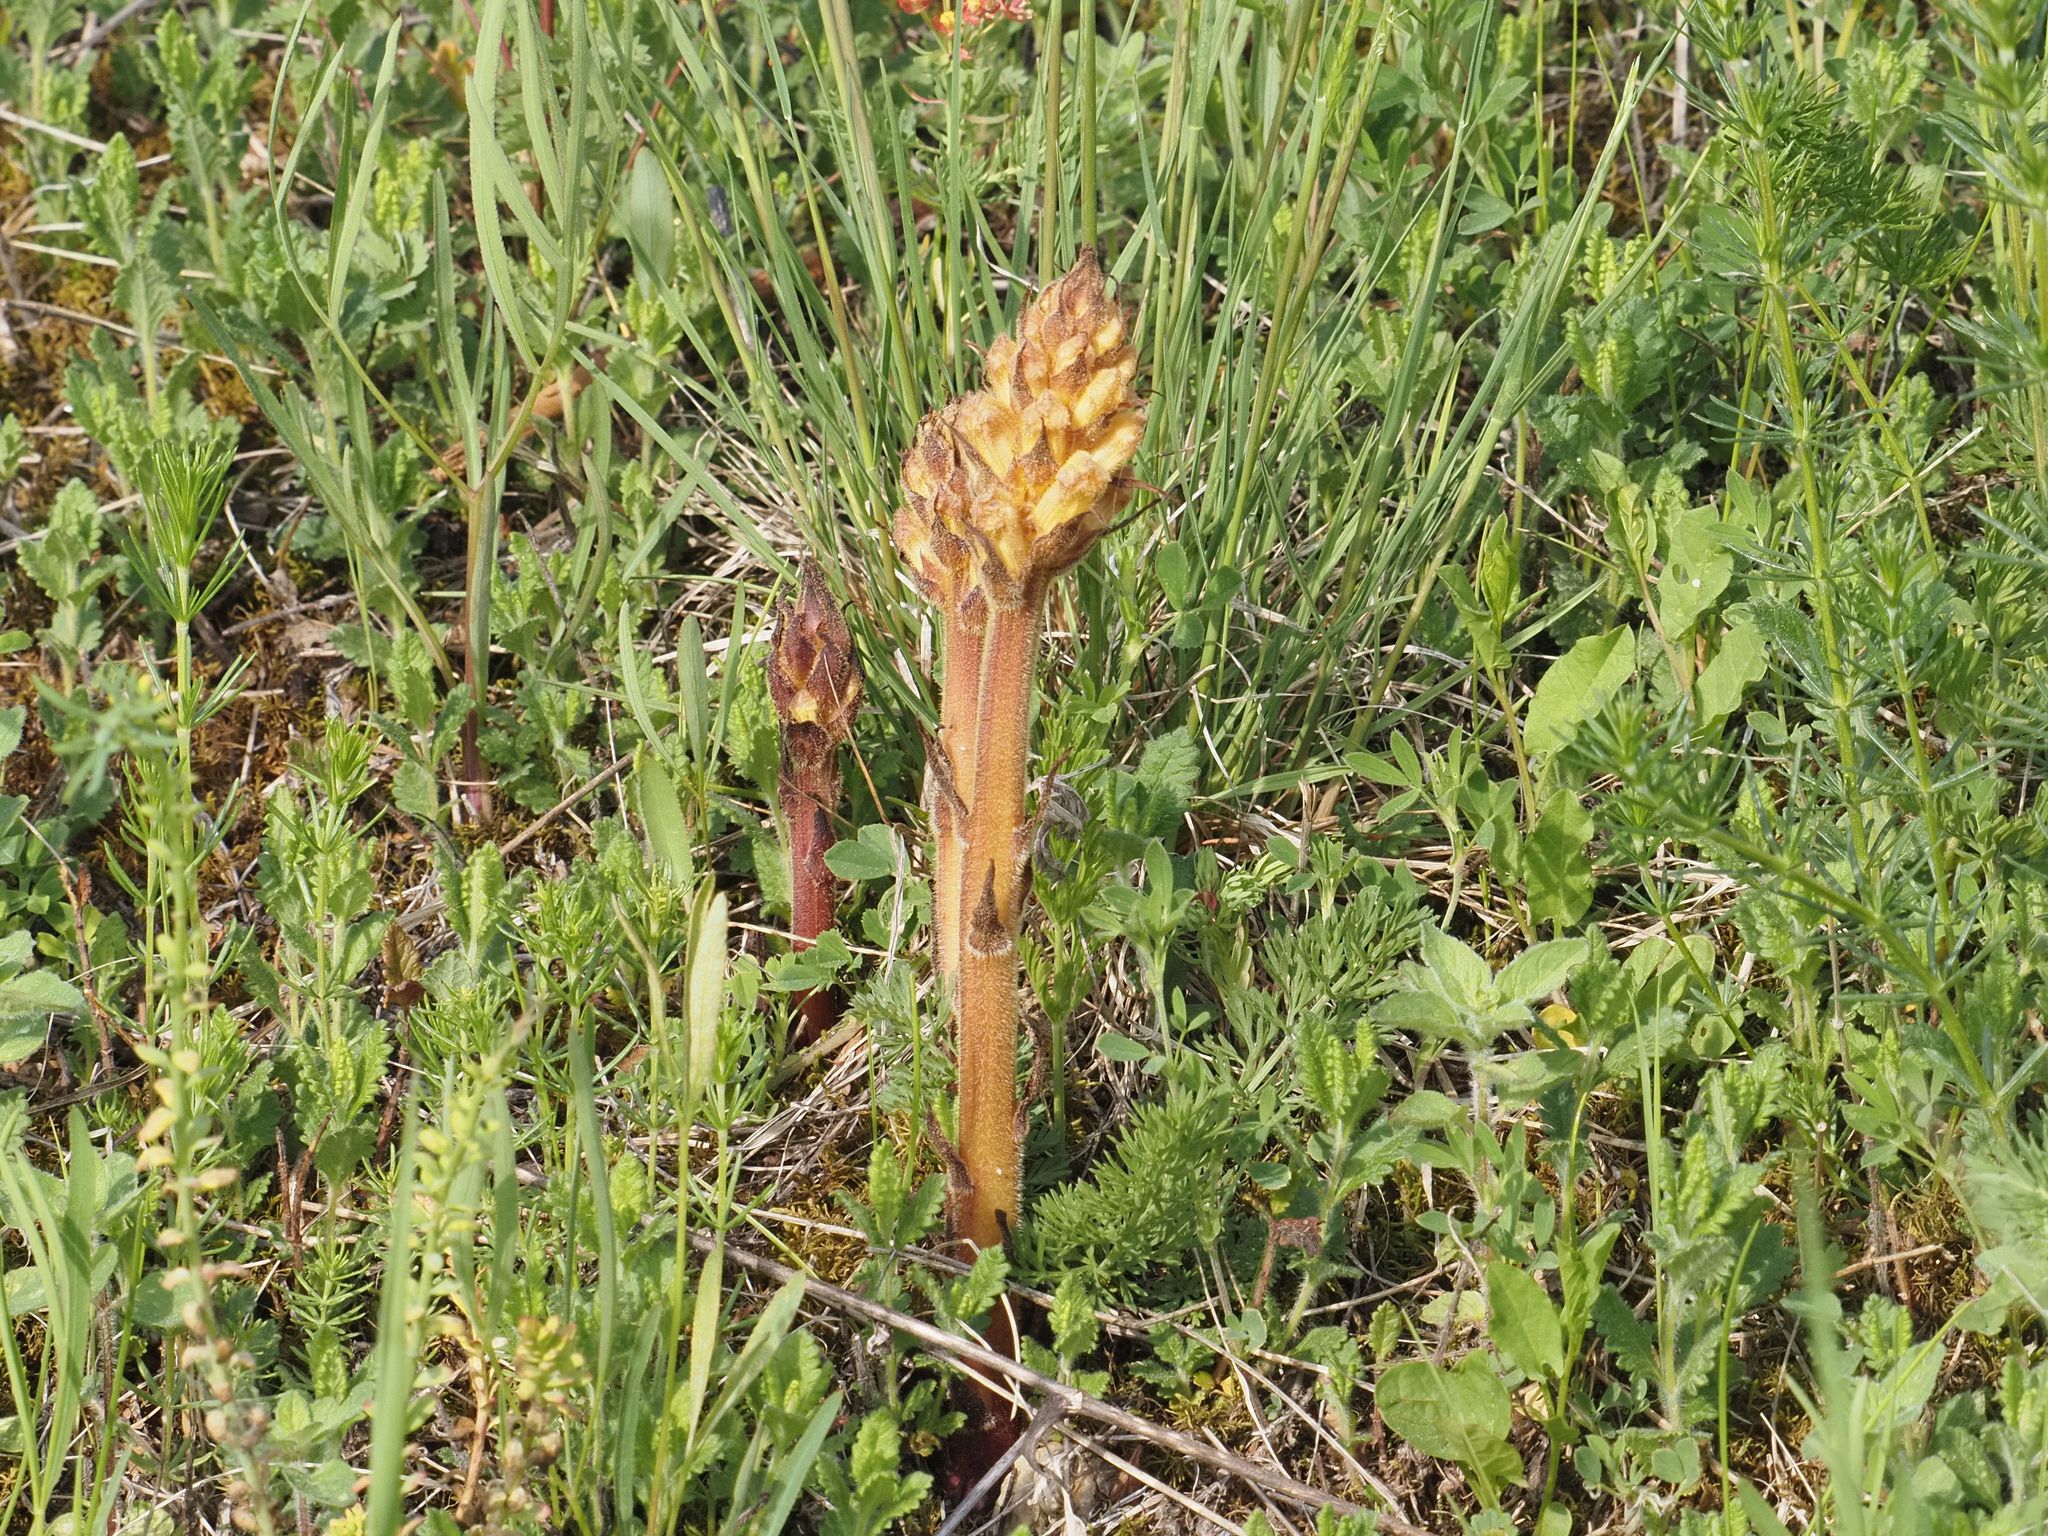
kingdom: Plantae
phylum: Tracheophyta
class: Magnoliopsida
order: Lamiales
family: Orobanchaceae
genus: Orobanche
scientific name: Orobanche lutea
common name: Yellow broomrape
